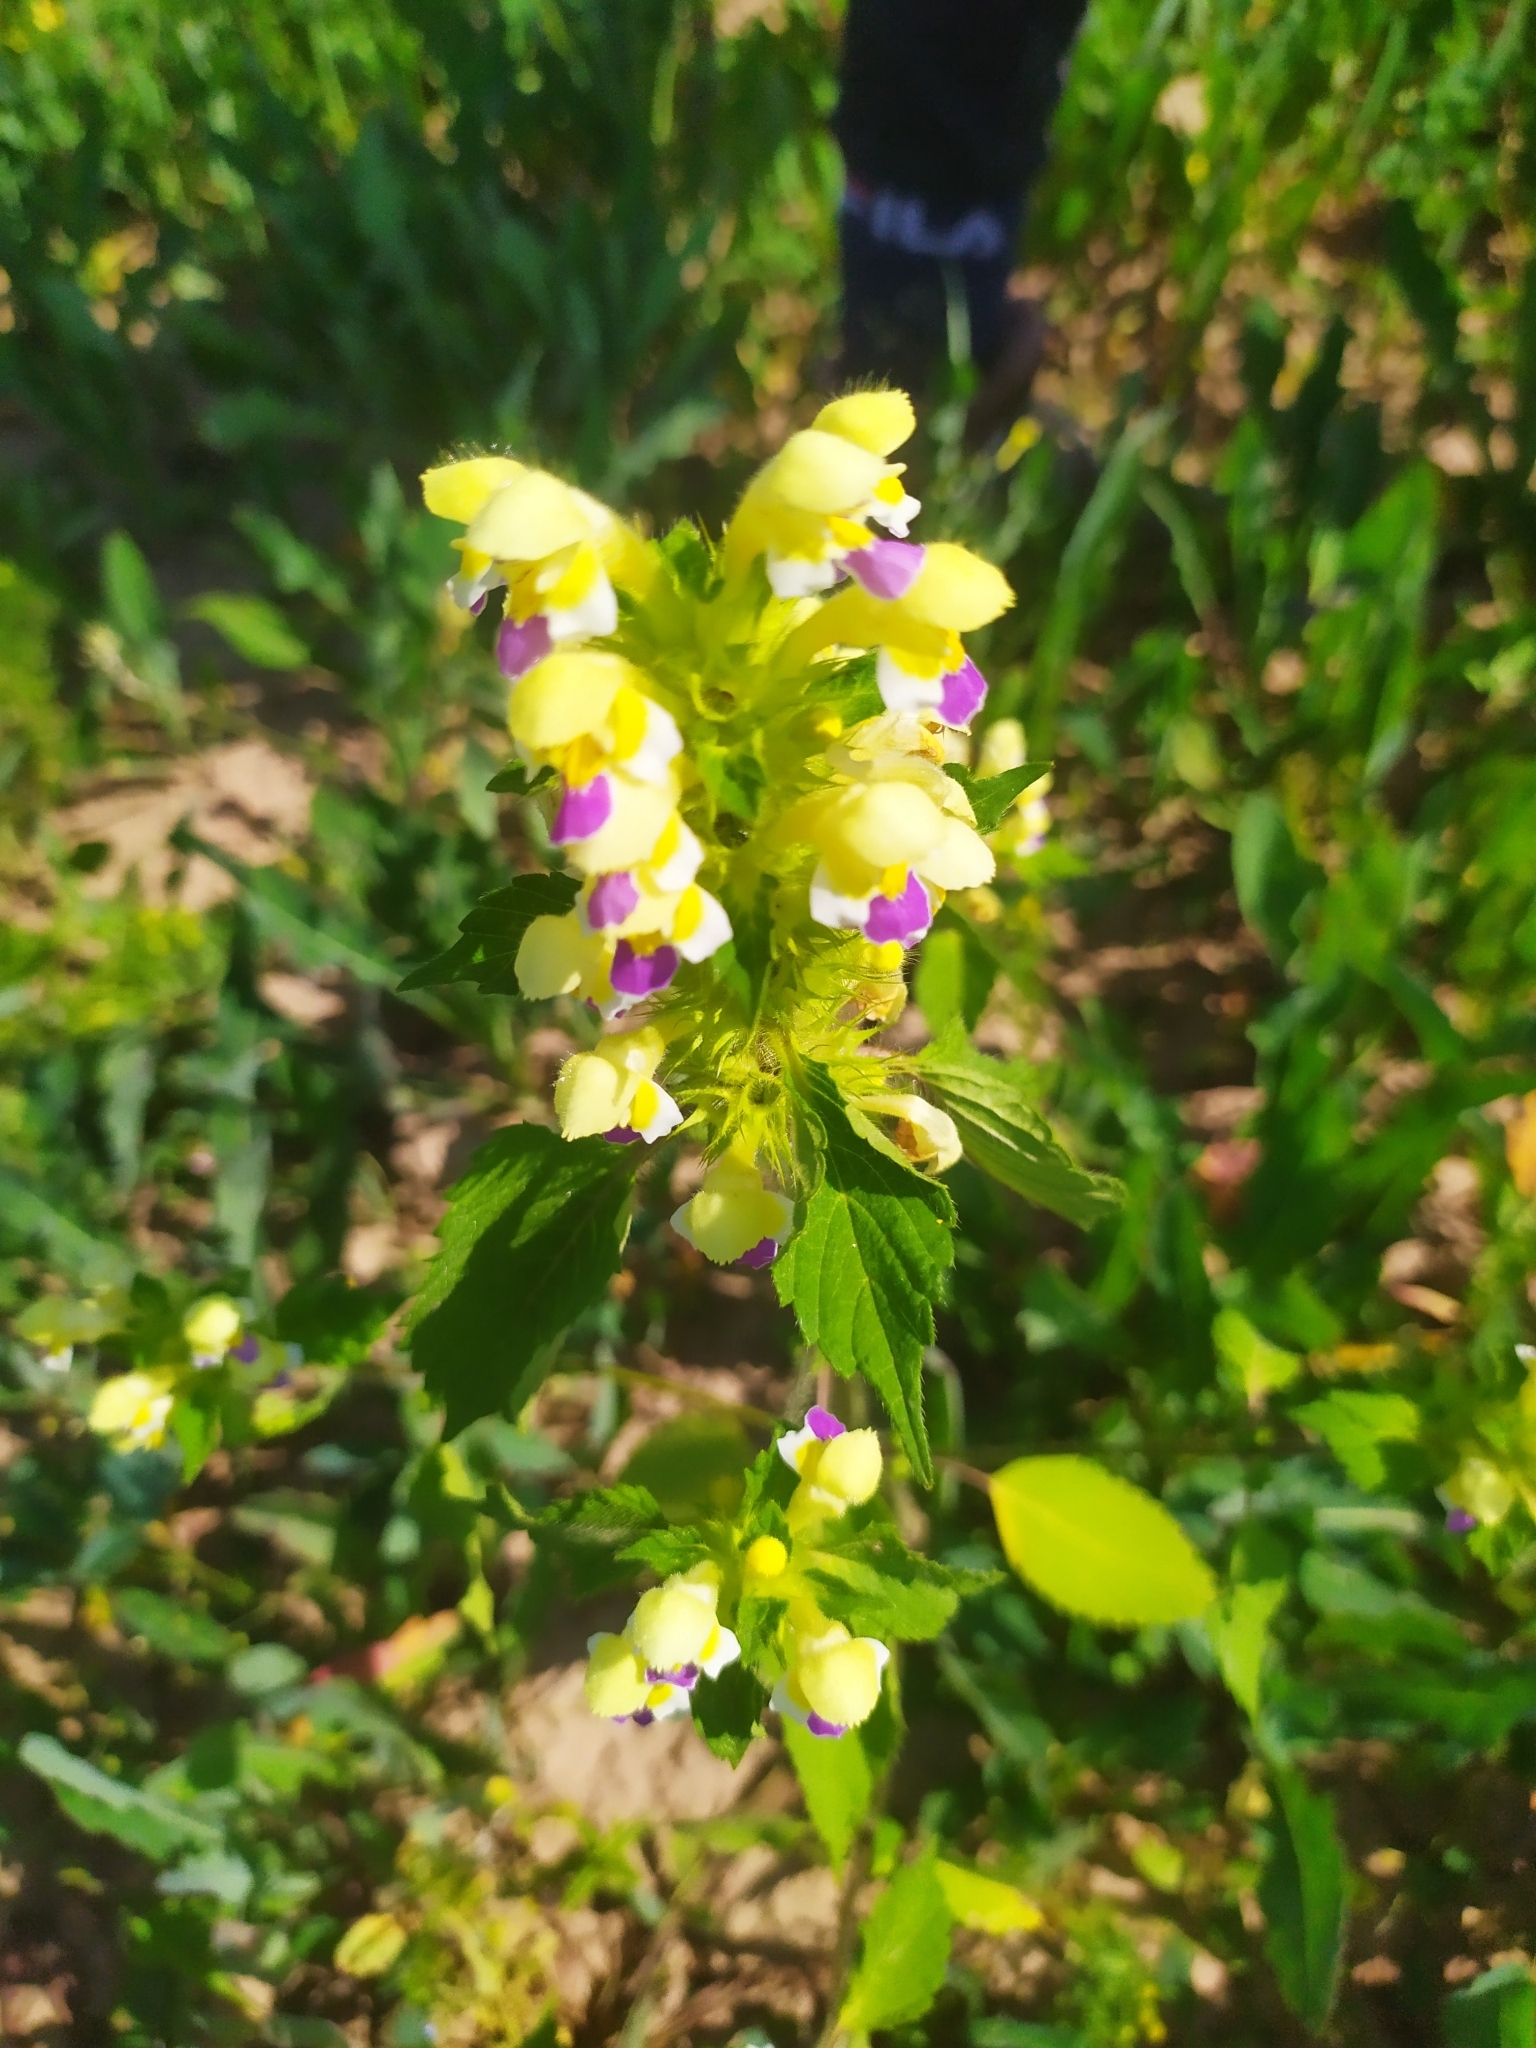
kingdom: Plantae
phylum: Tracheophyta
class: Magnoliopsida
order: Lamiales
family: Lamiaceae
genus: Galeopsis
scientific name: Galeopsis speciosa
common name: Large-flowered hemp-nettle
